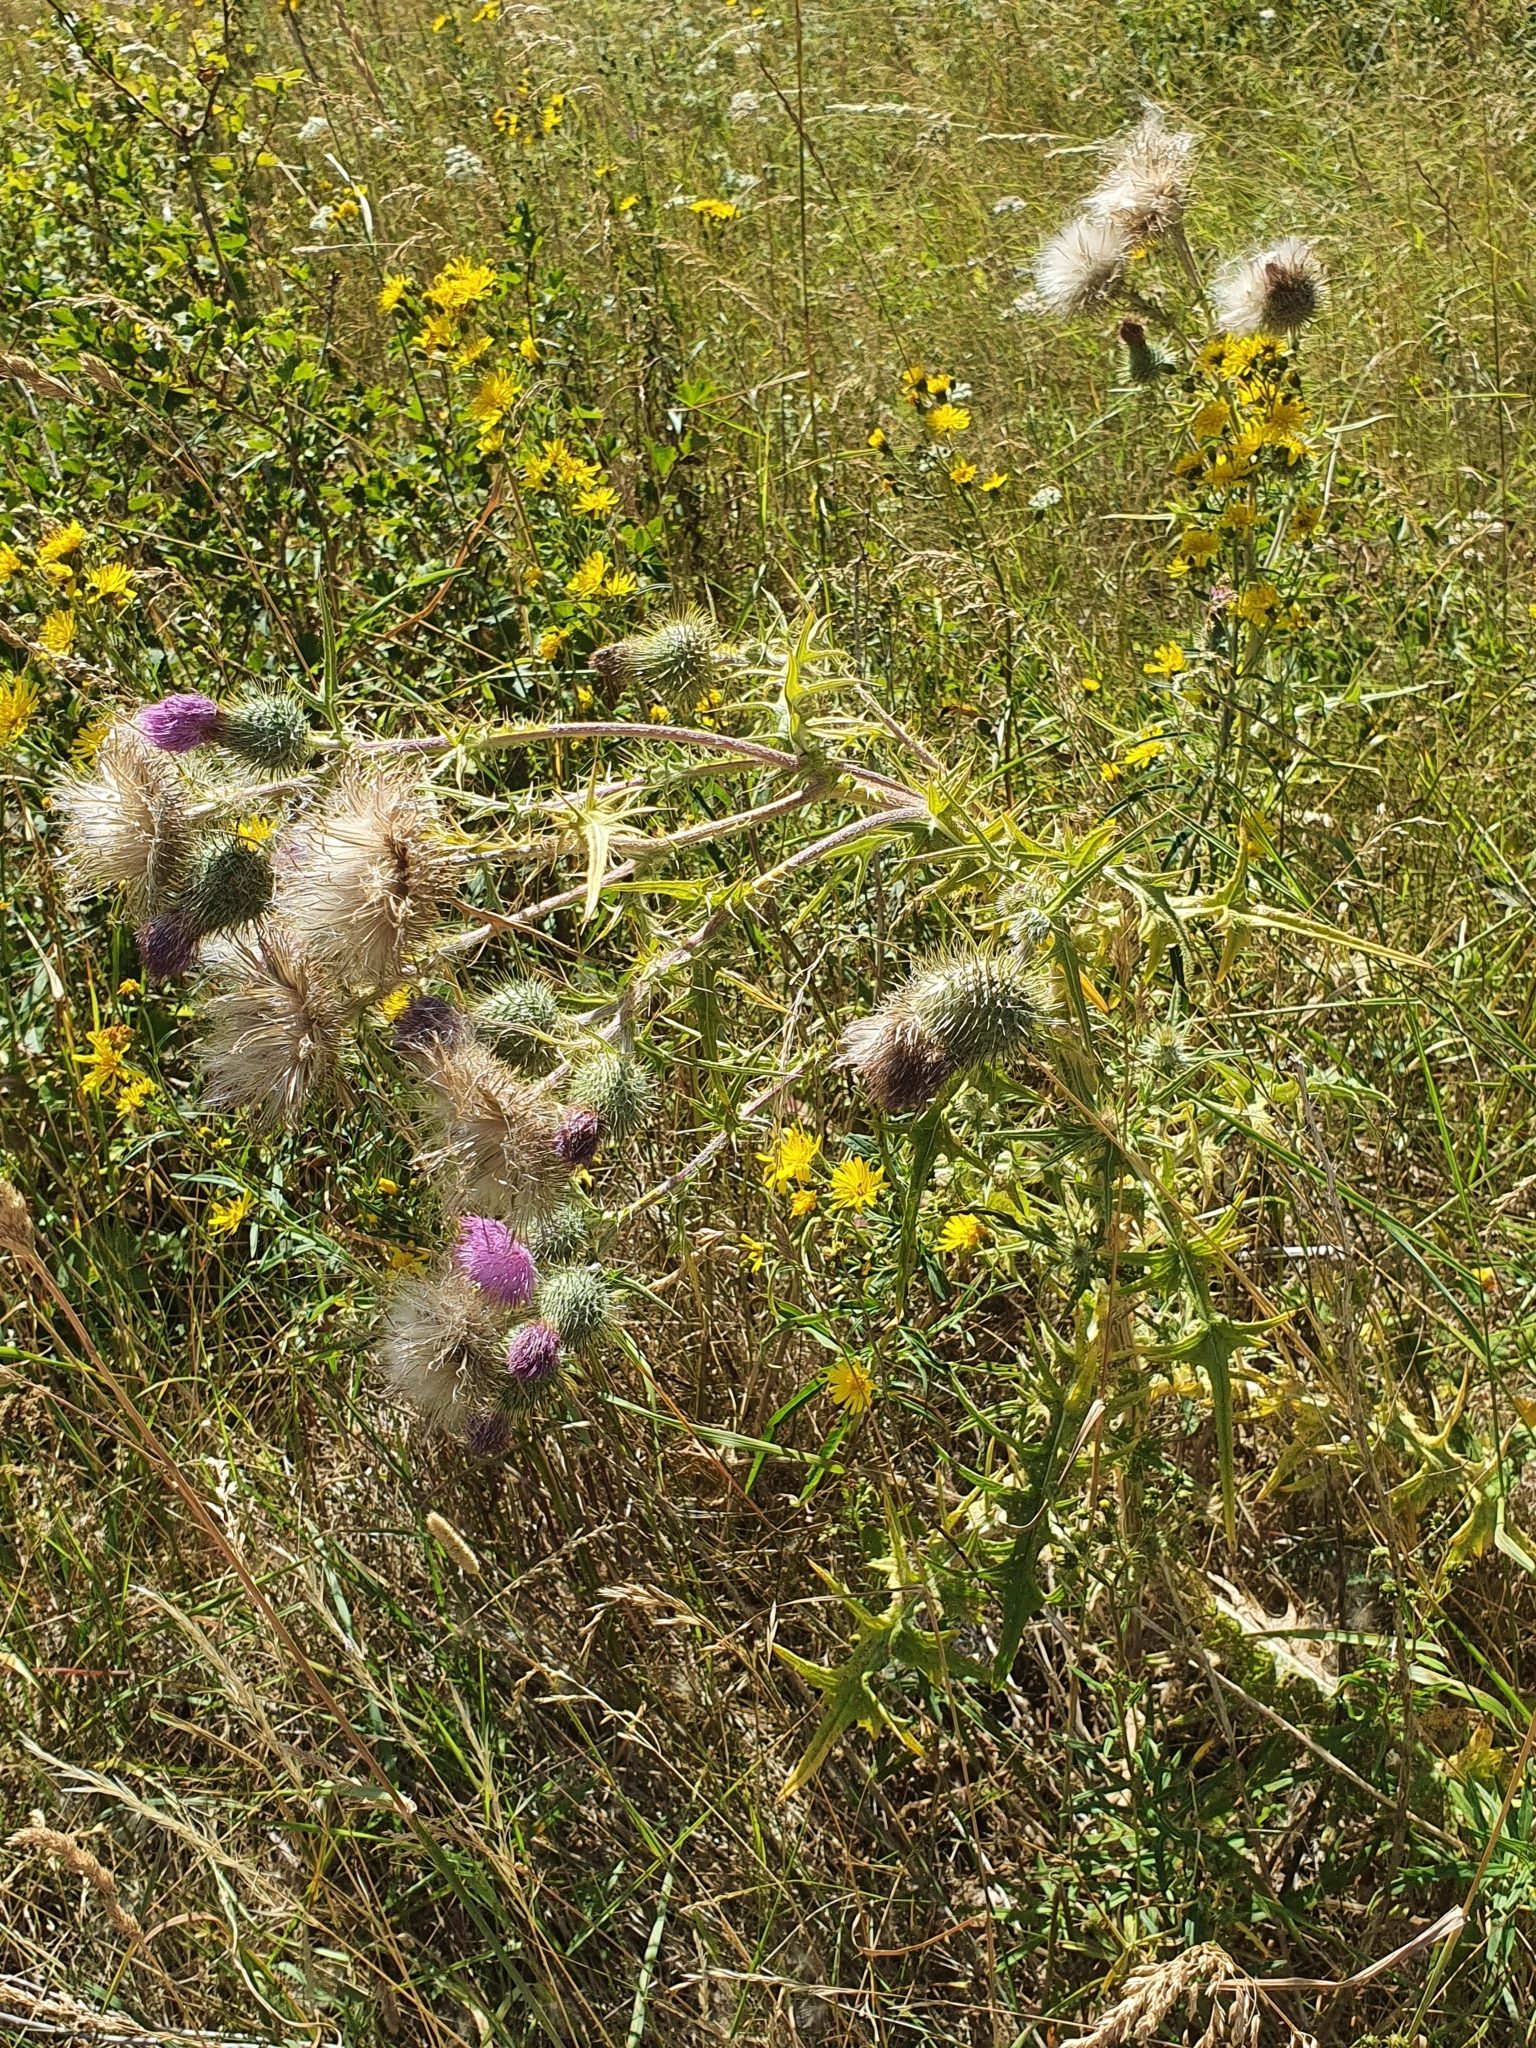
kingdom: Plantae
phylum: Tracheophyta
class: Magnoliopsida
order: Asterales
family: Asteraceae
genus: Cirsium
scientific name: Cirsium vulgare
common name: Bull thistle
